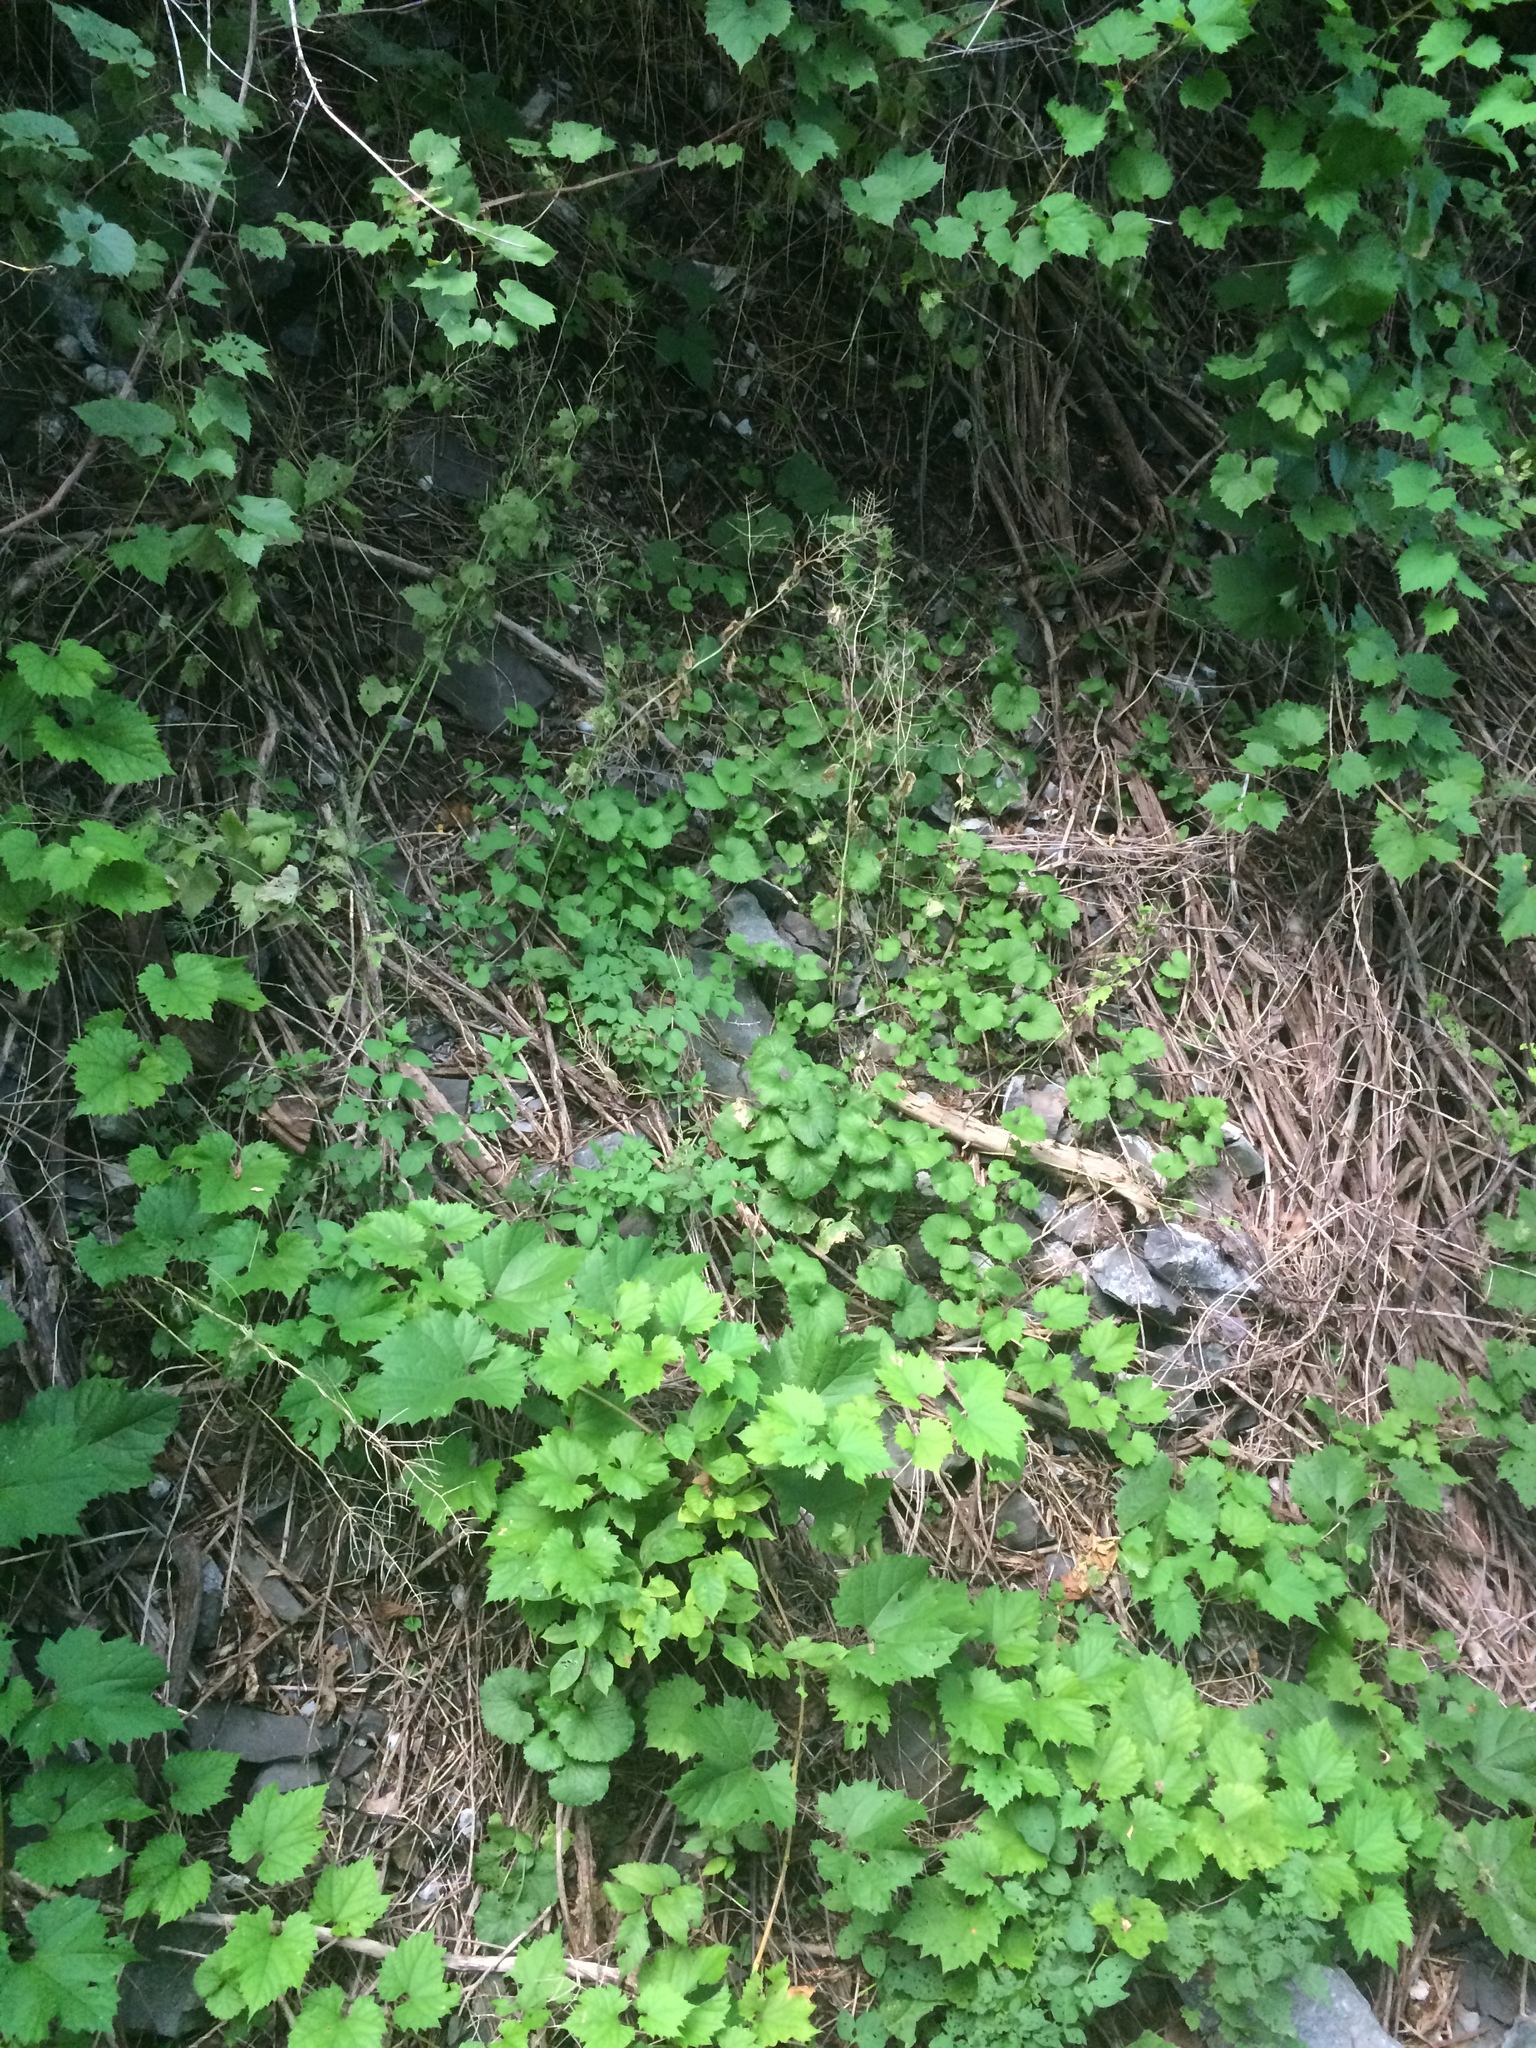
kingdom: Plantae
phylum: Tracheophyta
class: Magnoliopsida
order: Brassicales
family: Brassicaceae
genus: Alliaria
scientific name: Alliaria petiolata
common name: Garlic mustard
